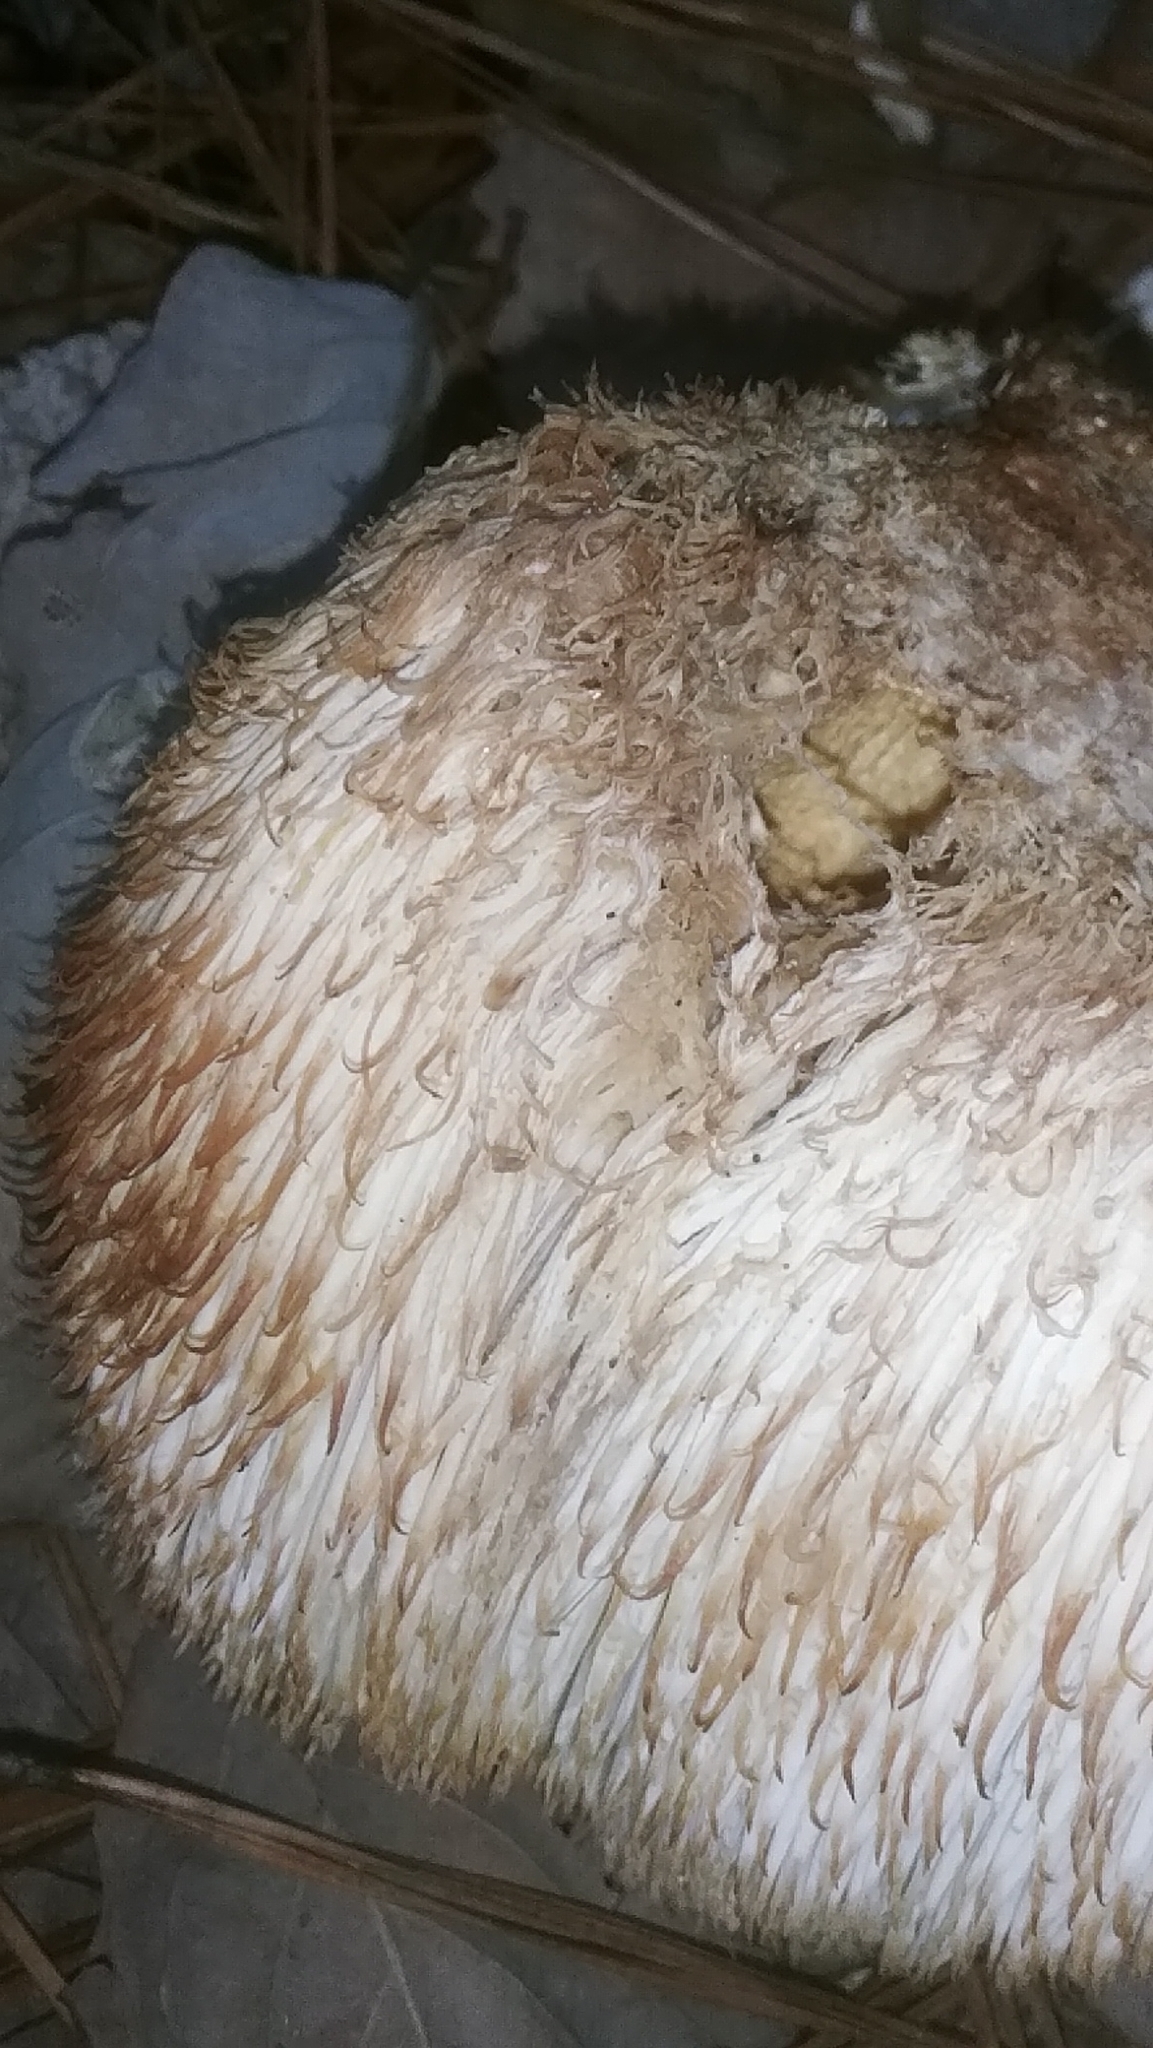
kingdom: Fungi
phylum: Basidiomycota
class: Agaricomycetes
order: Russulales
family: Hericiaceae
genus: Hericium
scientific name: Hericium erinaceus
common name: Bearded tooth
